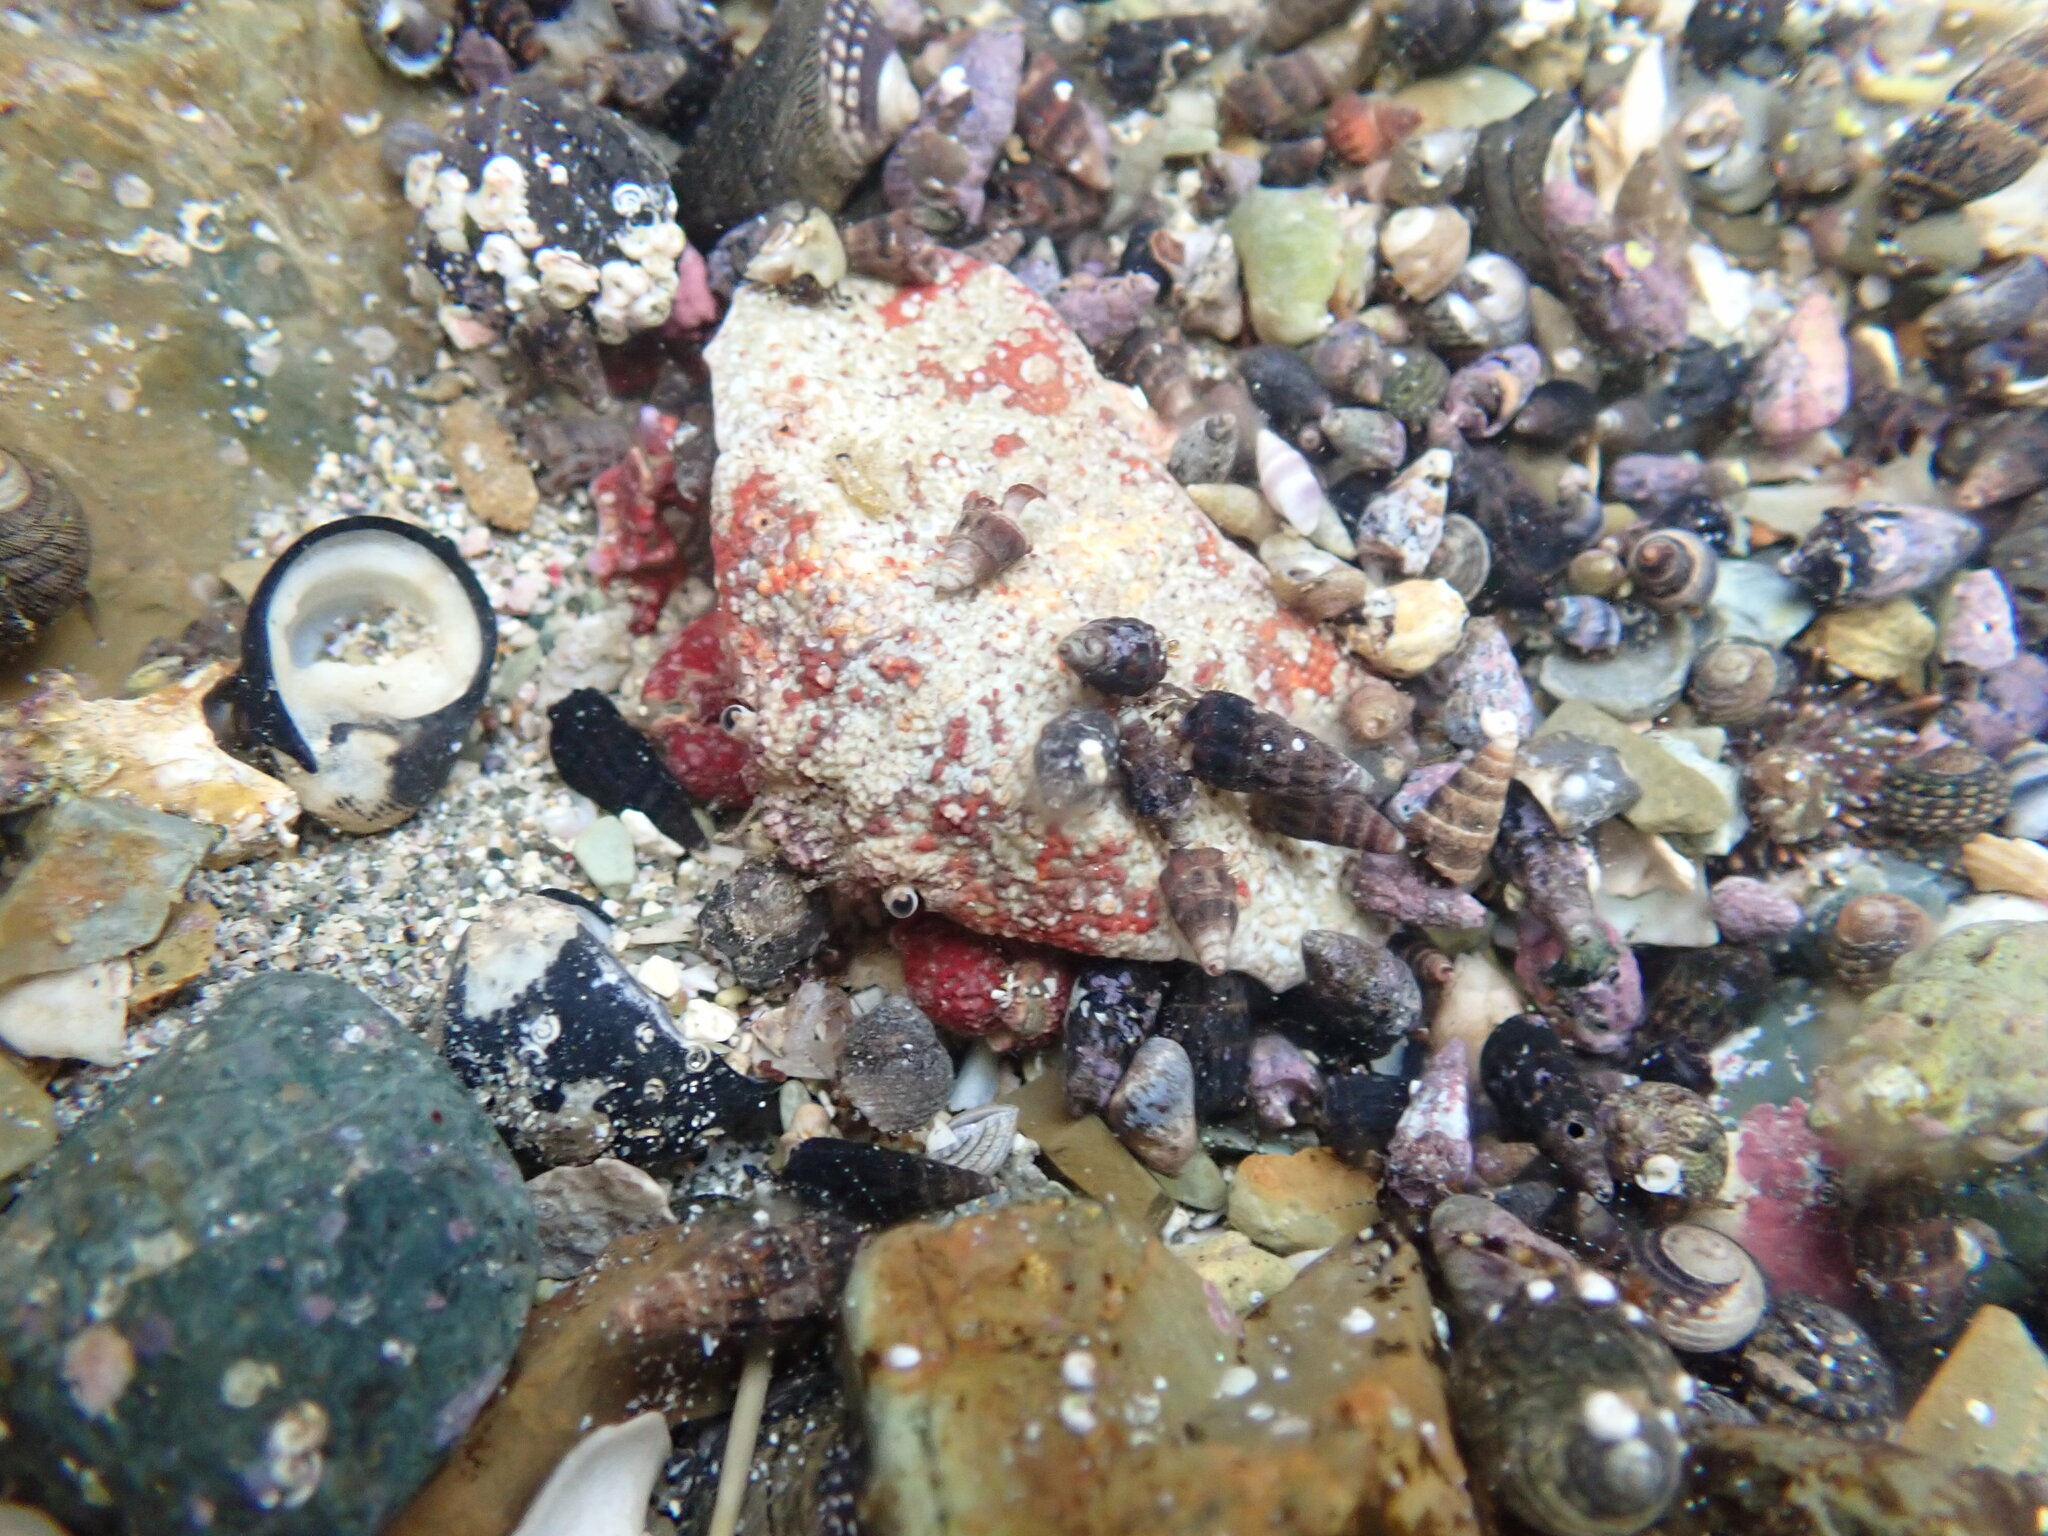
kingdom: Animalia
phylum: Arthropoda
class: Malacostraca
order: Decapoda
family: Majidae
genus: Eurynolambrus
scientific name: Eurynolambrus australis
